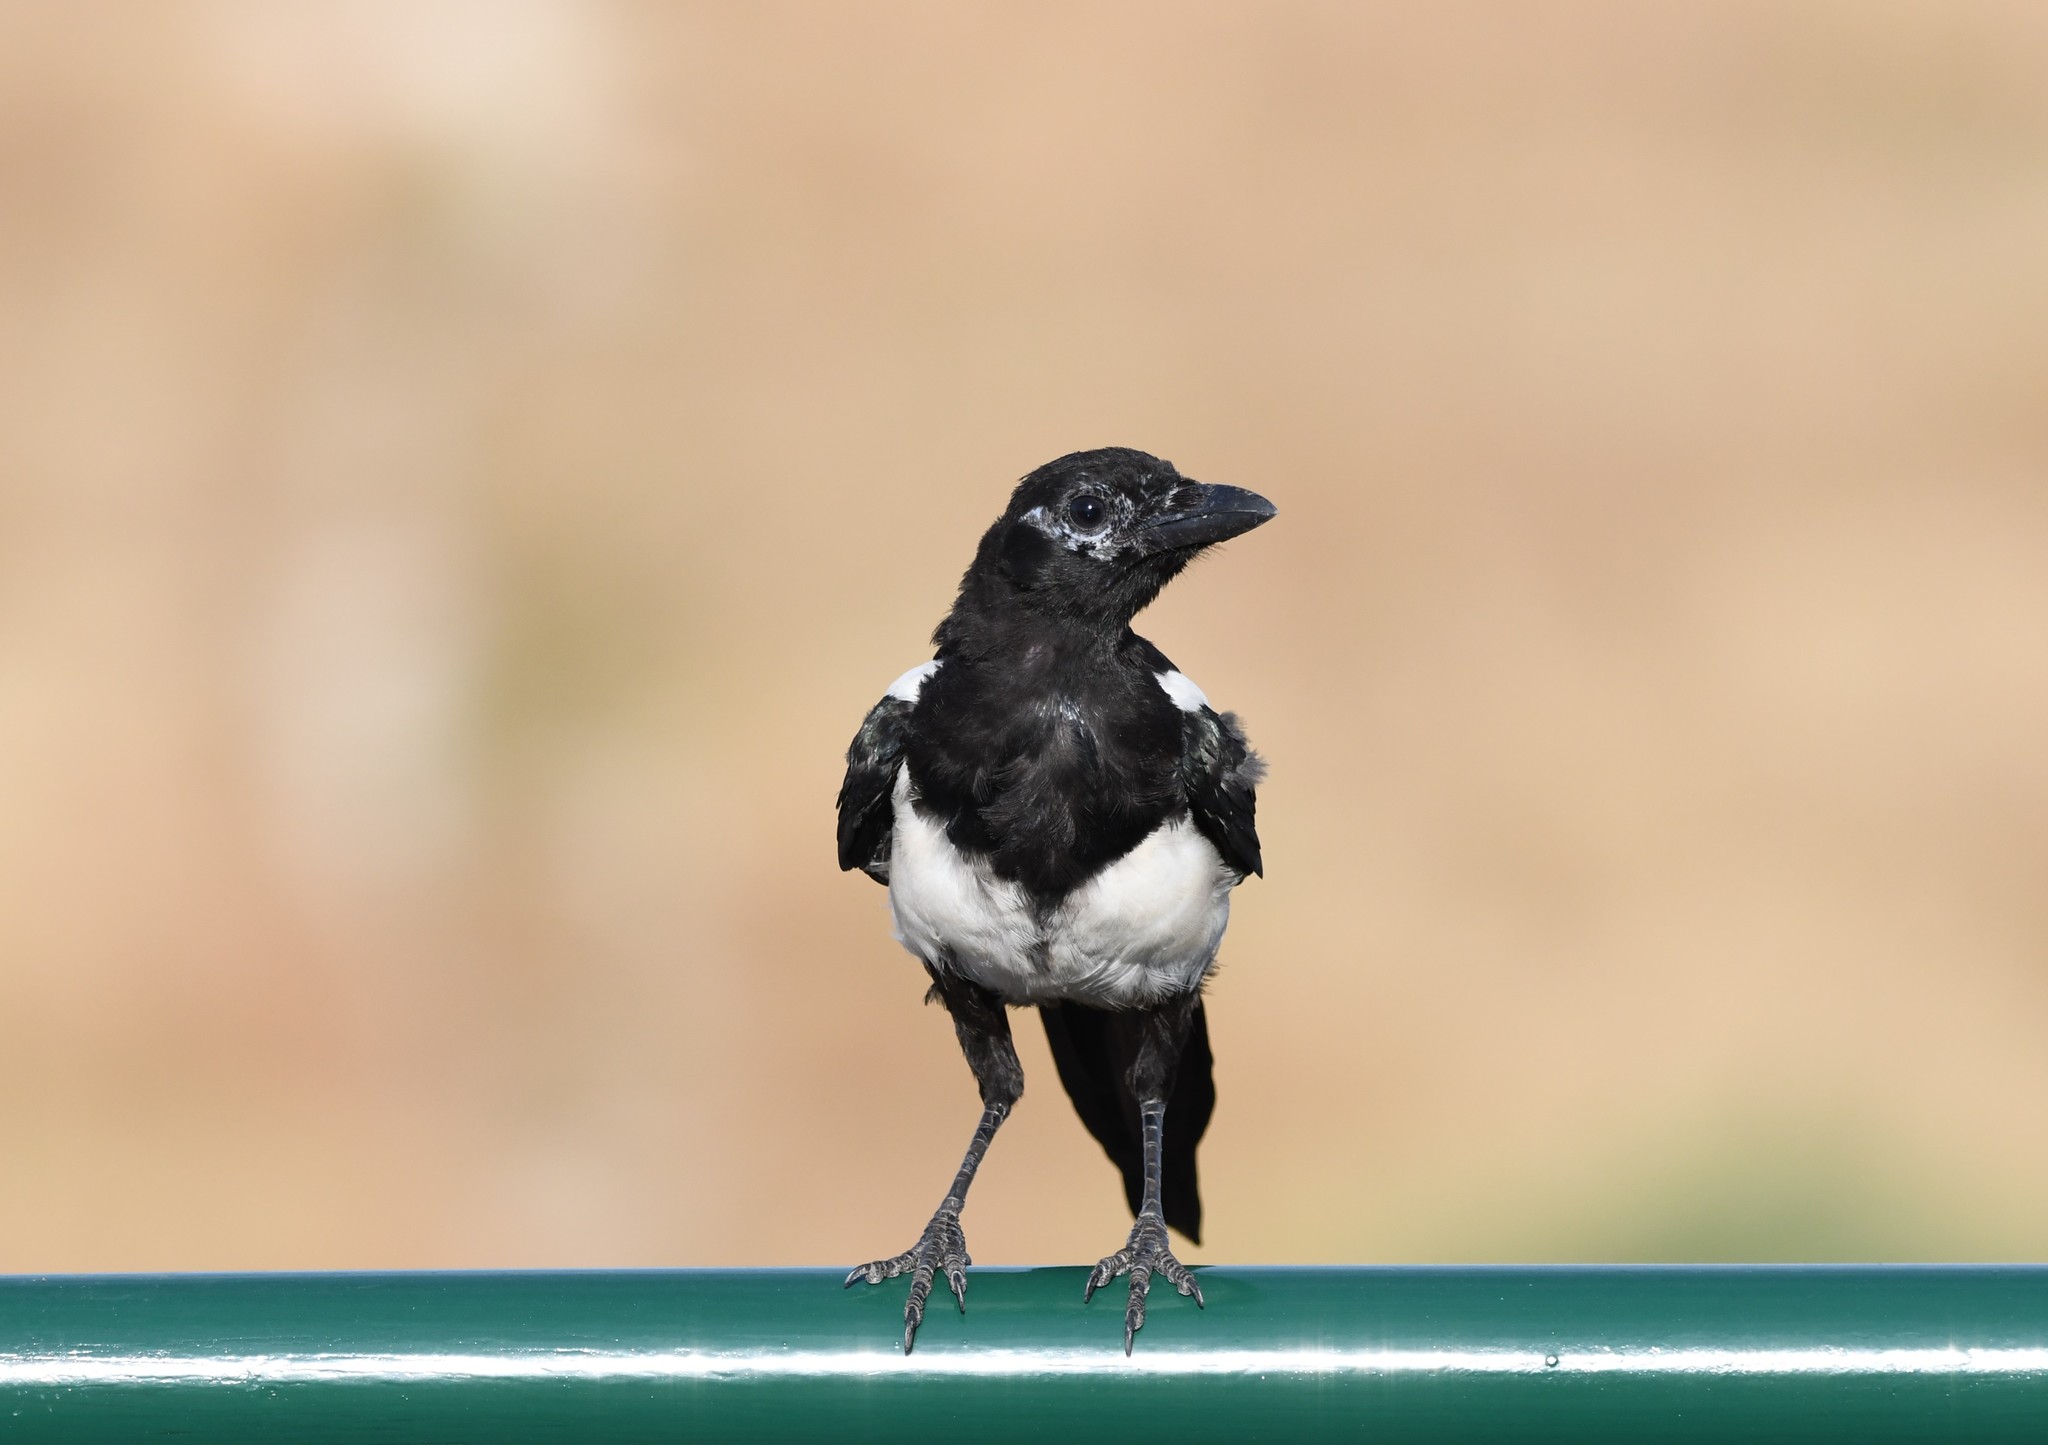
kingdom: Animalia
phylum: Chordata
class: Aves
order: Passeriformes
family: Corvidae
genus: Pica
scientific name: Pica pica
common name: Eurasian magpie
